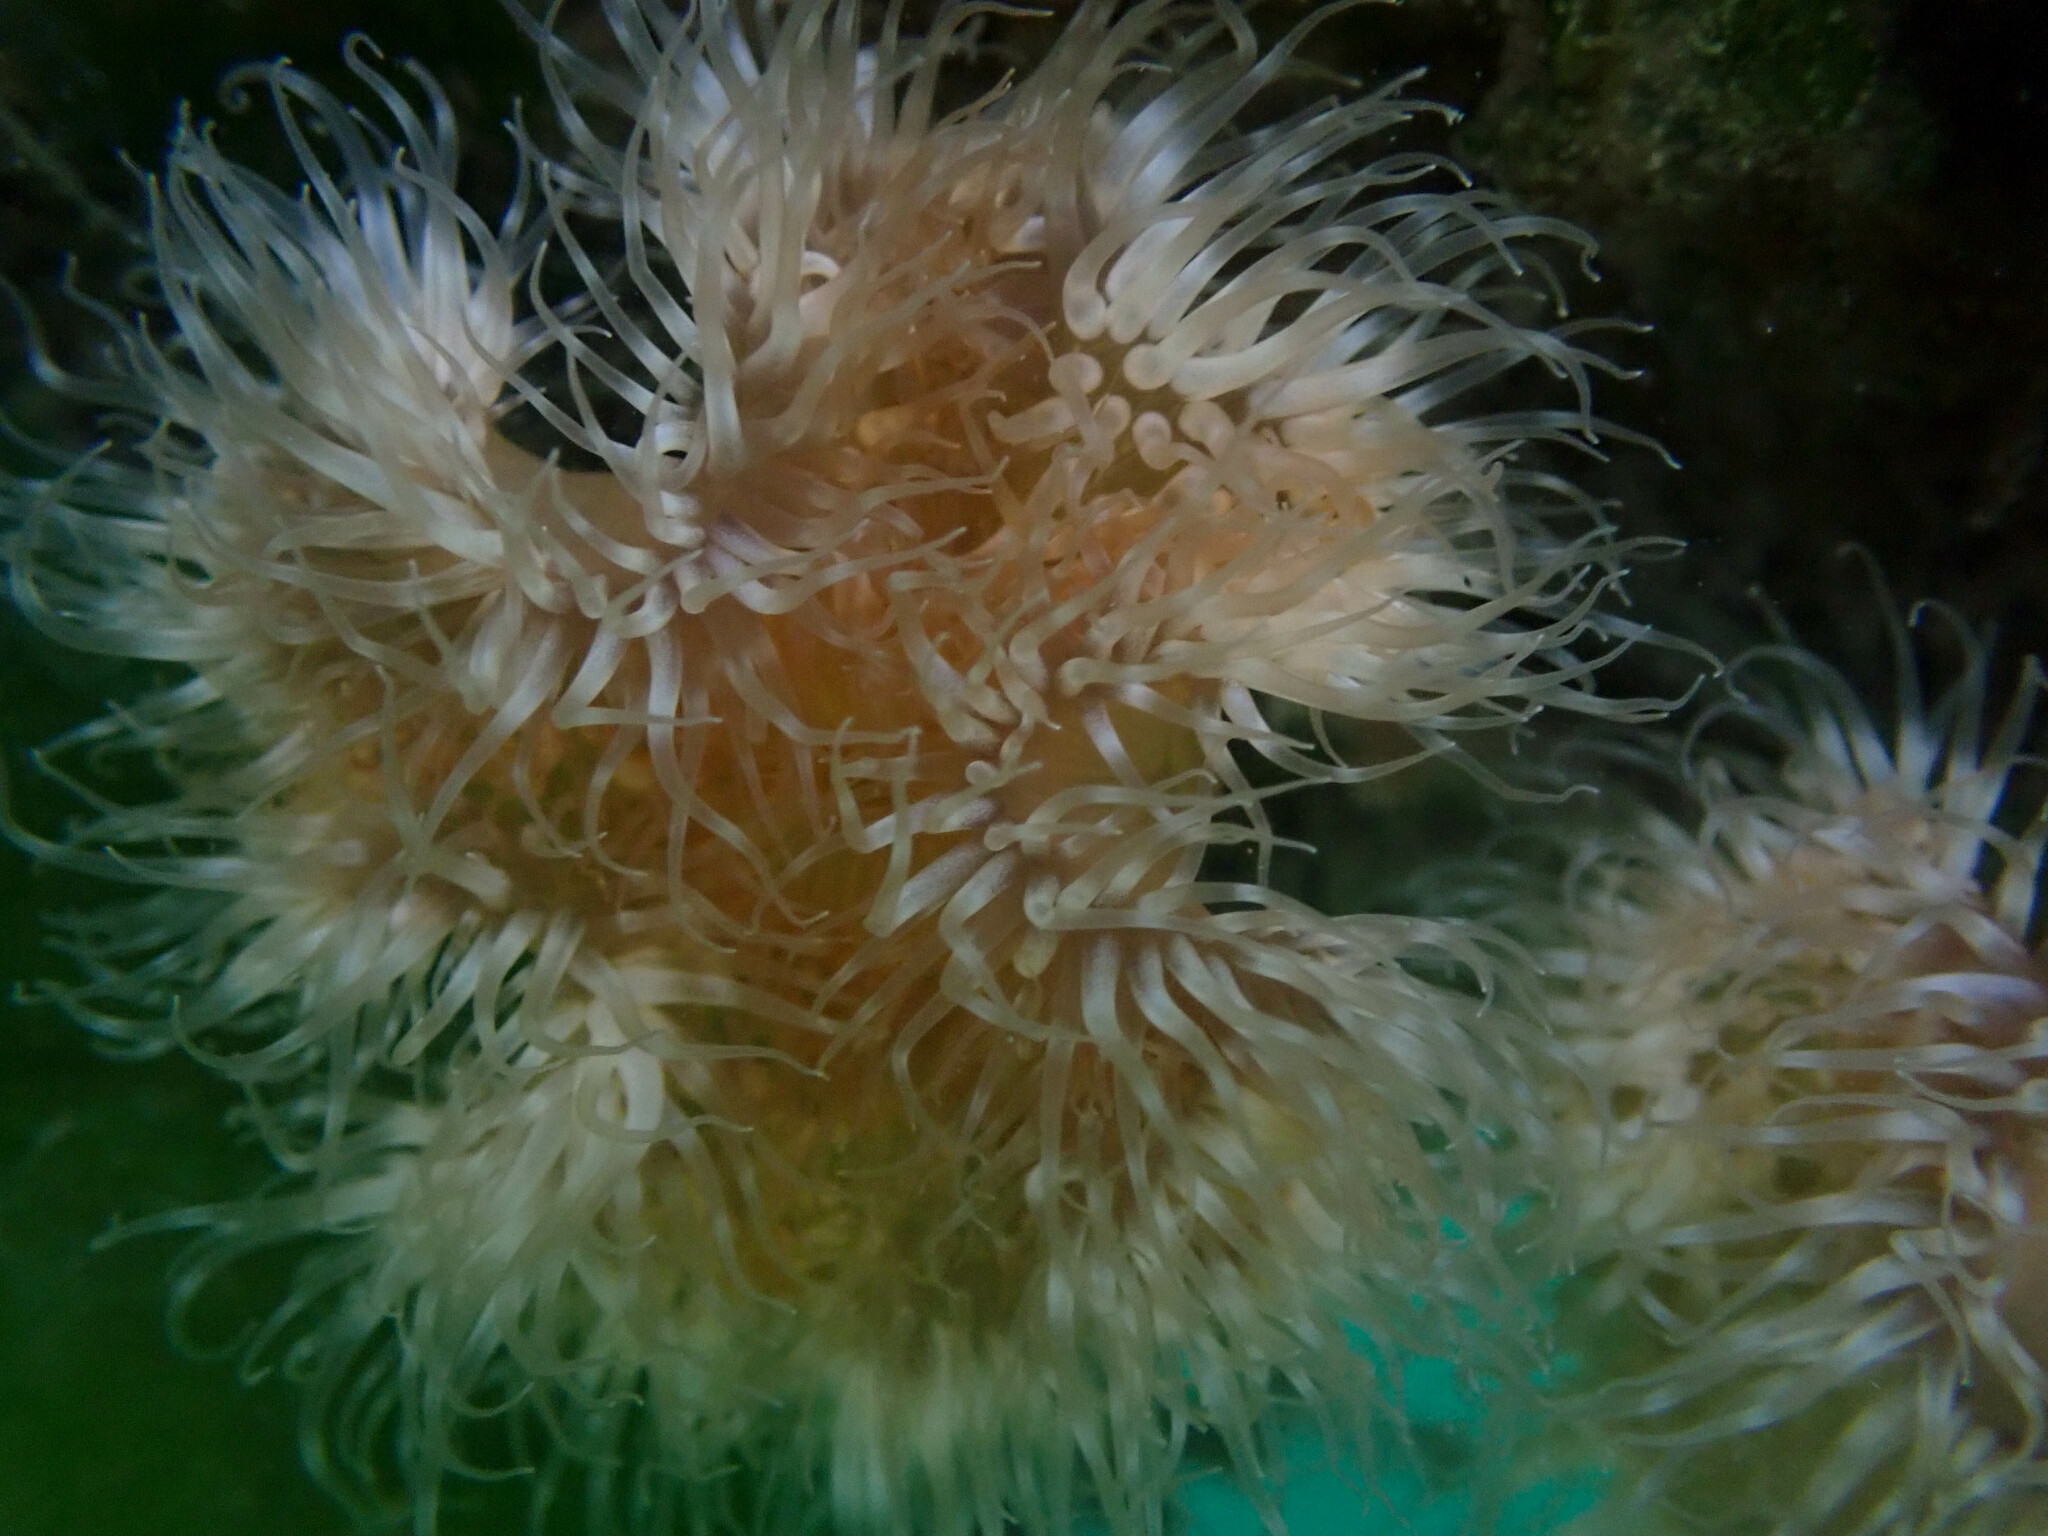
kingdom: Animalia
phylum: Cnidaria
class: Anthozoa
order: Actiniaria
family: Metridiidae
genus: Metridium
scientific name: Metridium senile
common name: Clonal plumose anemone
